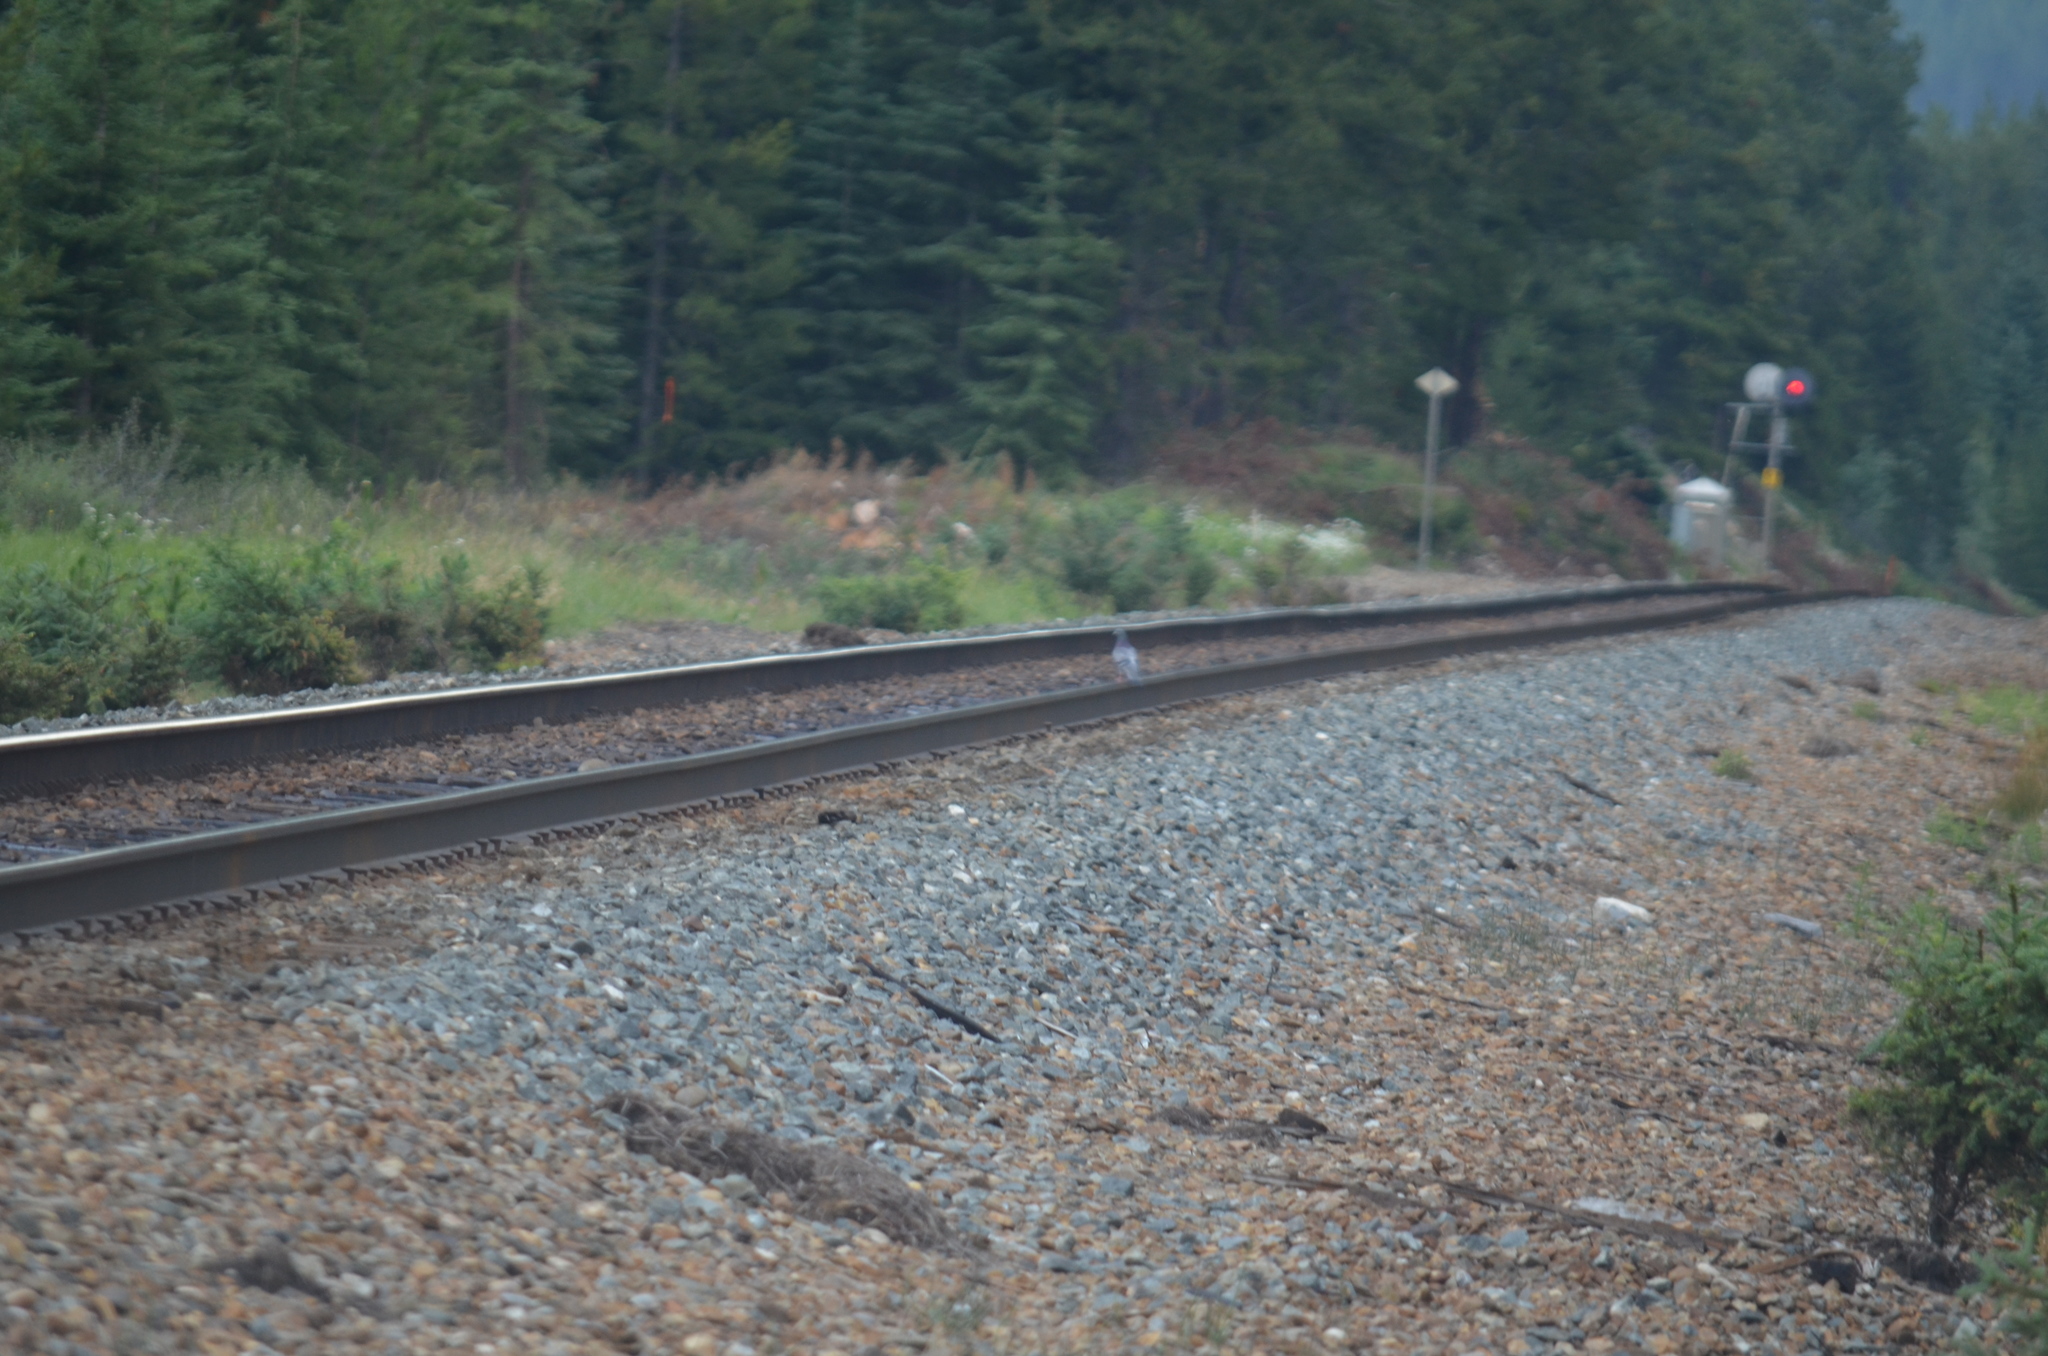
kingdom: Animalia
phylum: Chordata
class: Aves
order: Columbiformes
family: Columbidae
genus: Columba
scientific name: Columba livia
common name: Rock pigeon
